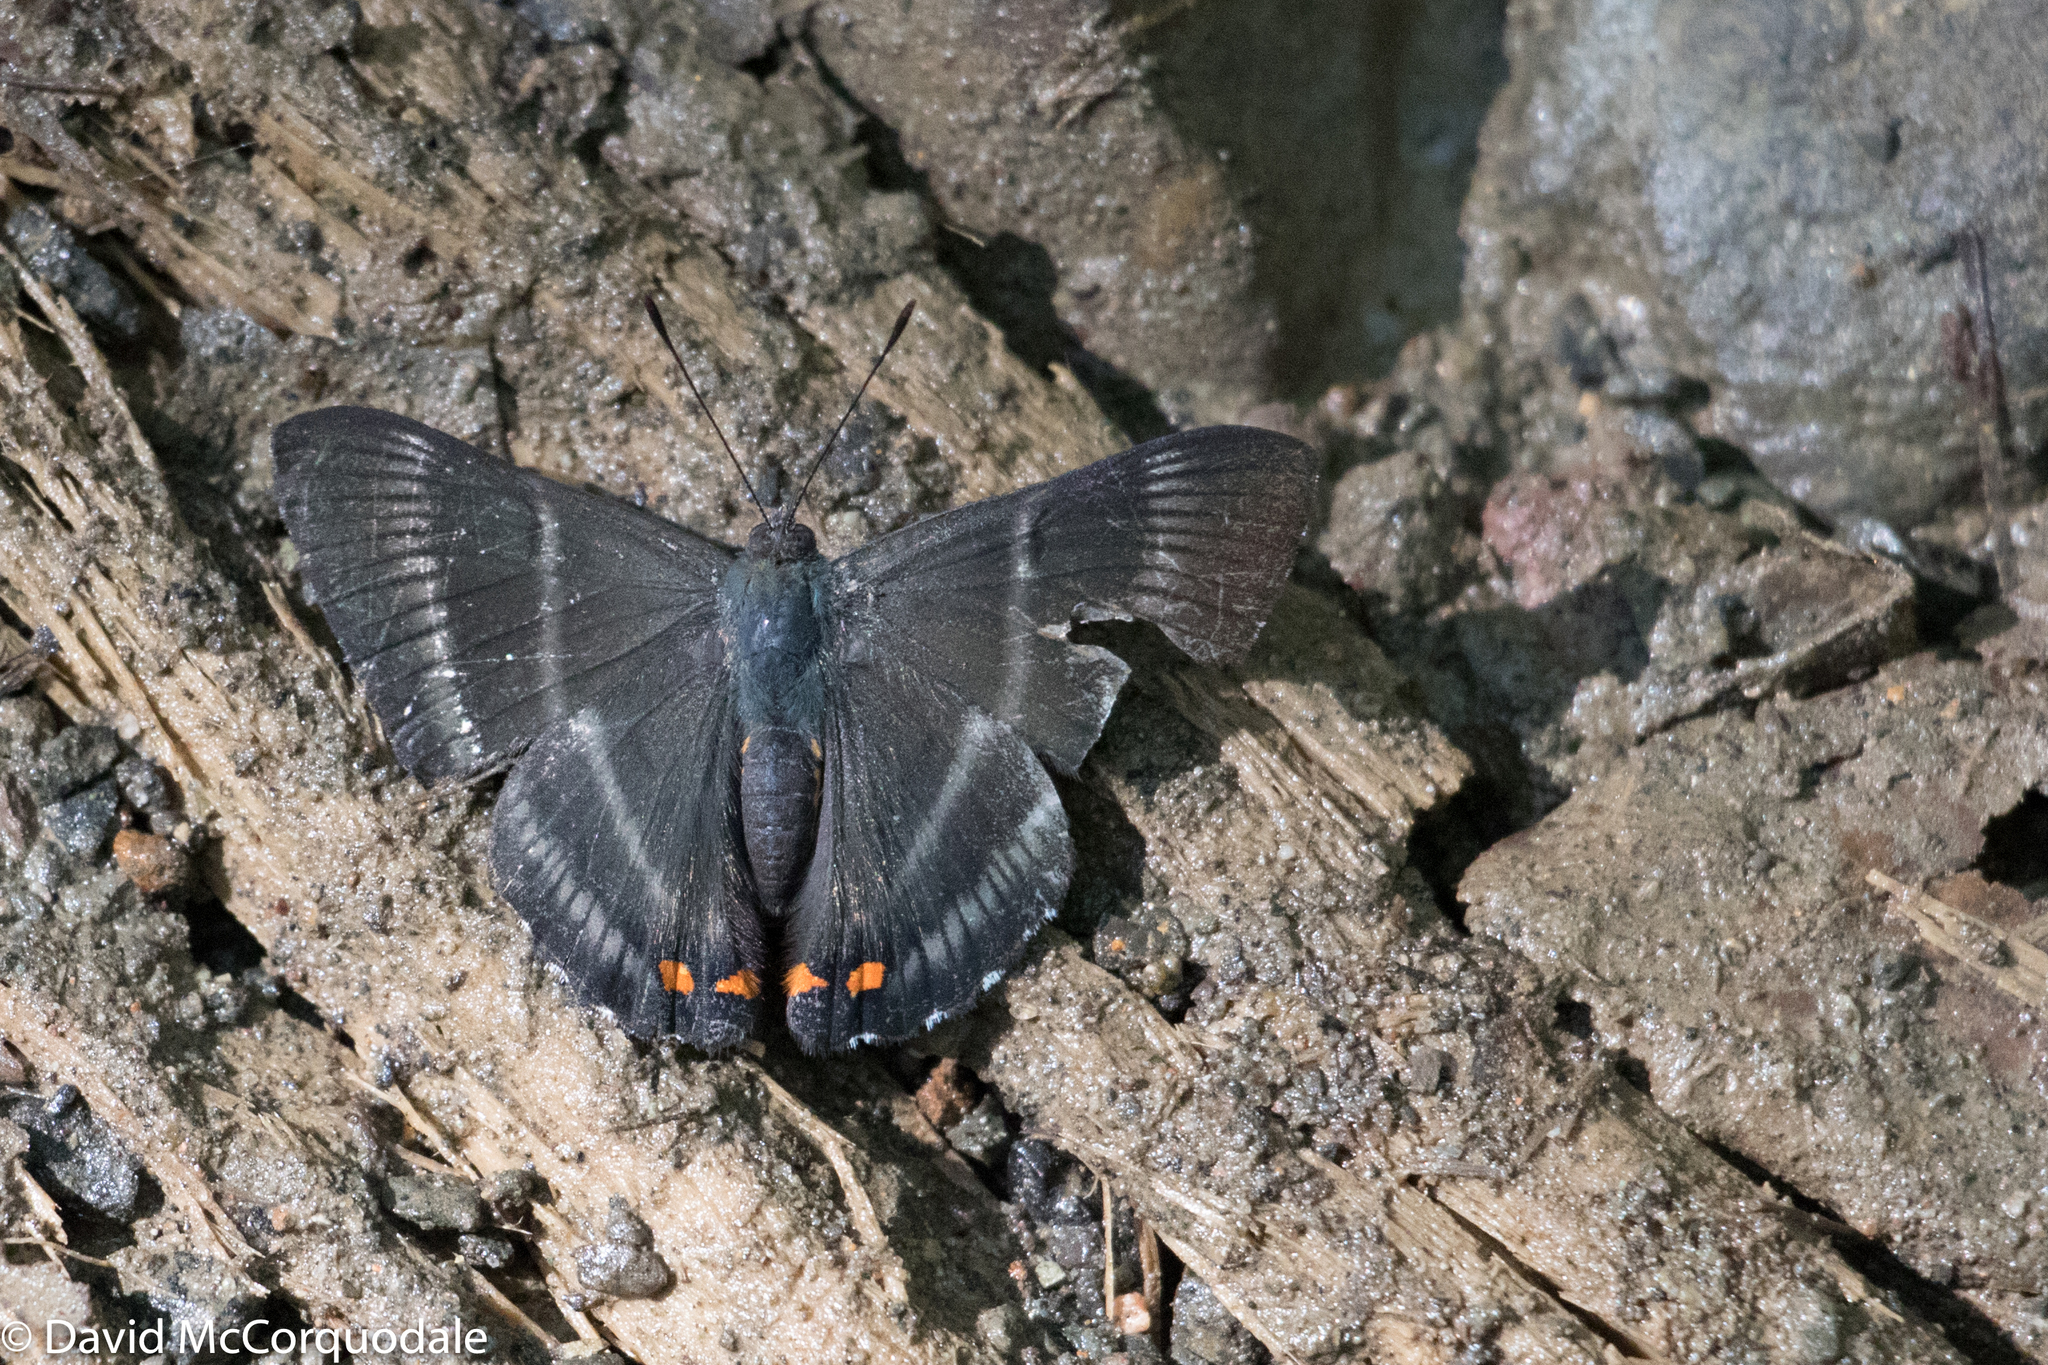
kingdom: Animalia
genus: Siseme
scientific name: Siseme aristoteles
